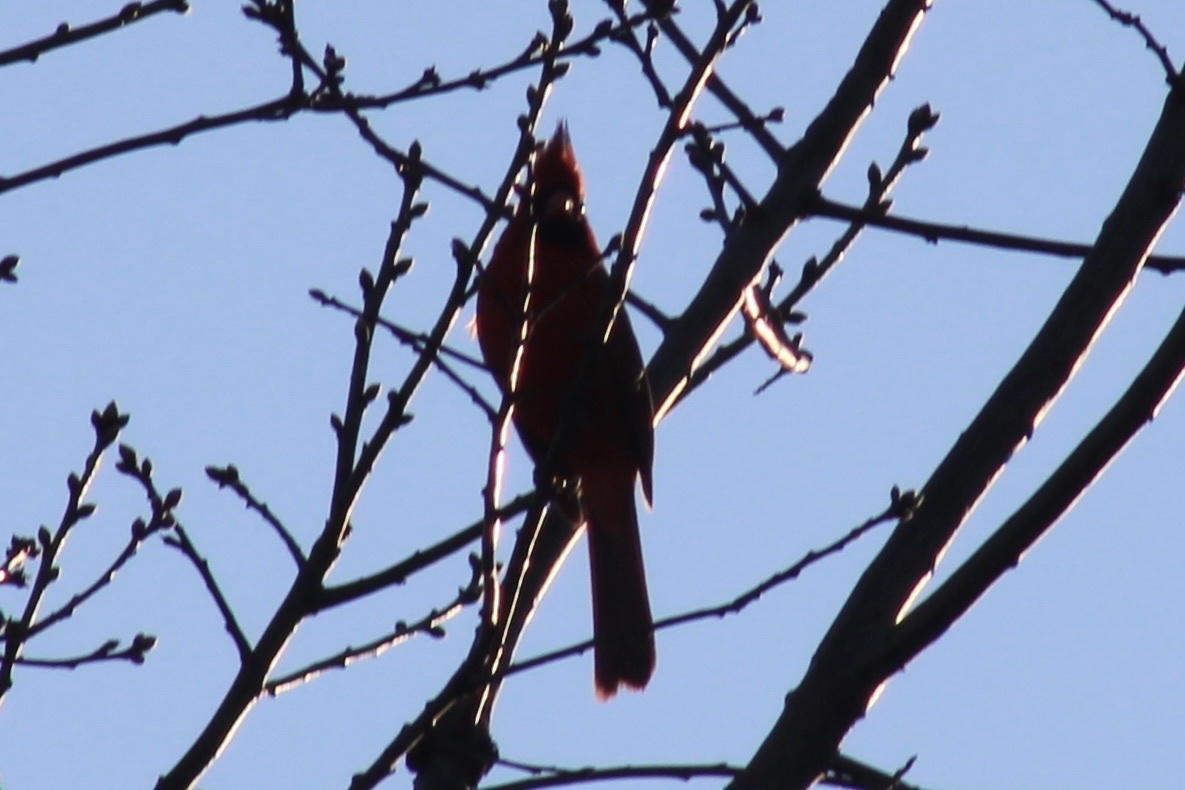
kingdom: Animalia
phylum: Chordata
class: Aves
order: Passeriformes
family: Cardinalidae
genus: Cardinalis
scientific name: Cardinalis cardinalis
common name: Northern cardinal
